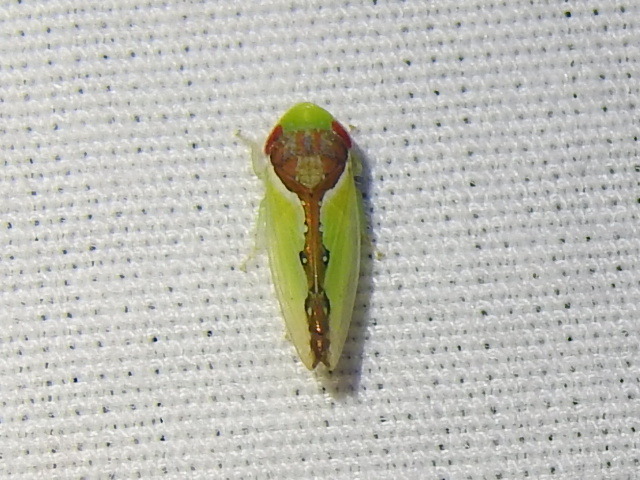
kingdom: Animalia
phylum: Arthropoda
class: Insecta
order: Hemiptera
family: Cicadellidae
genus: Omansobara ing
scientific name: Omansobara ing Omansobara palliolata
